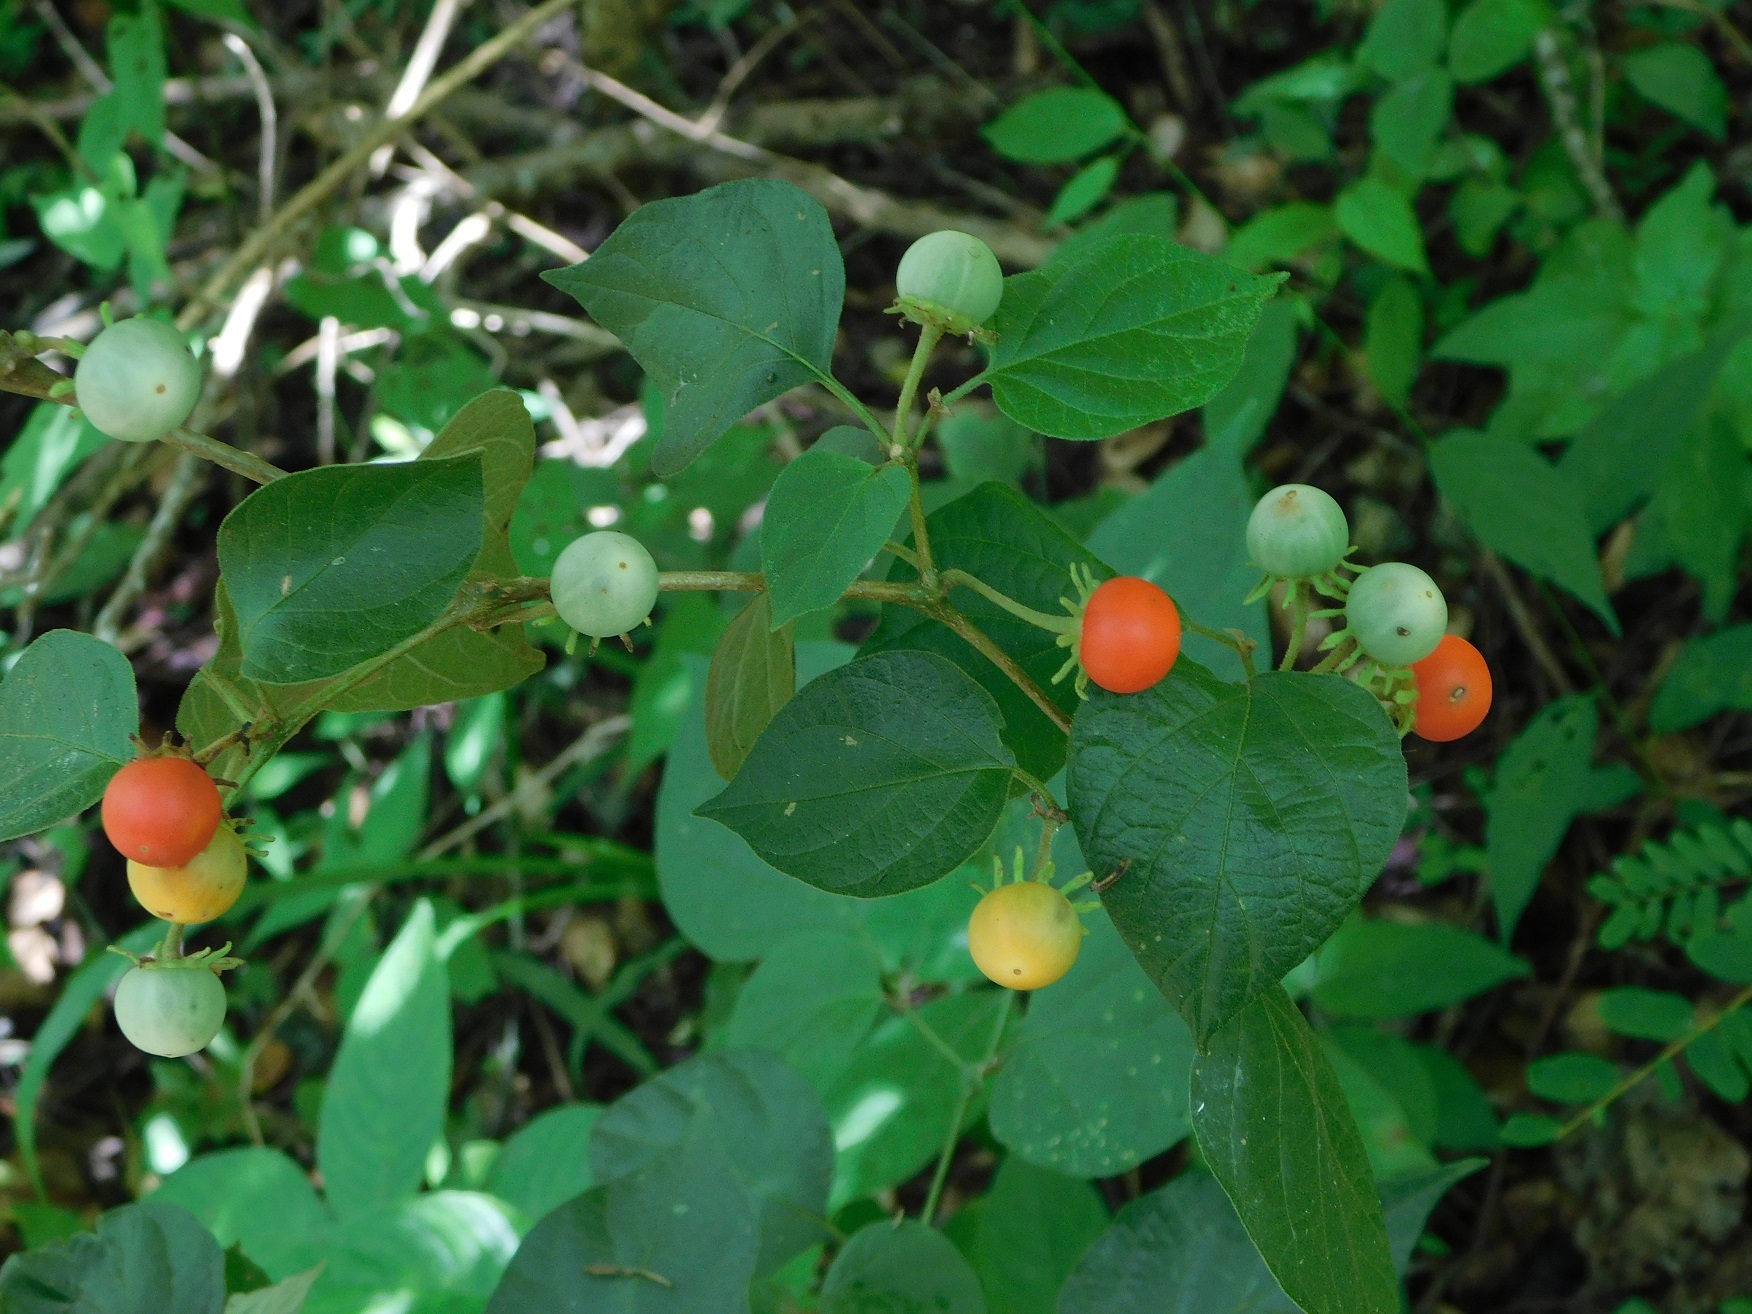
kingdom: Plantae
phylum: Tracheophyta
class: Magnoliopsida
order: Solanales
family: Solanaceae
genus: Lycianthes
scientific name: Lycianthes scandens
